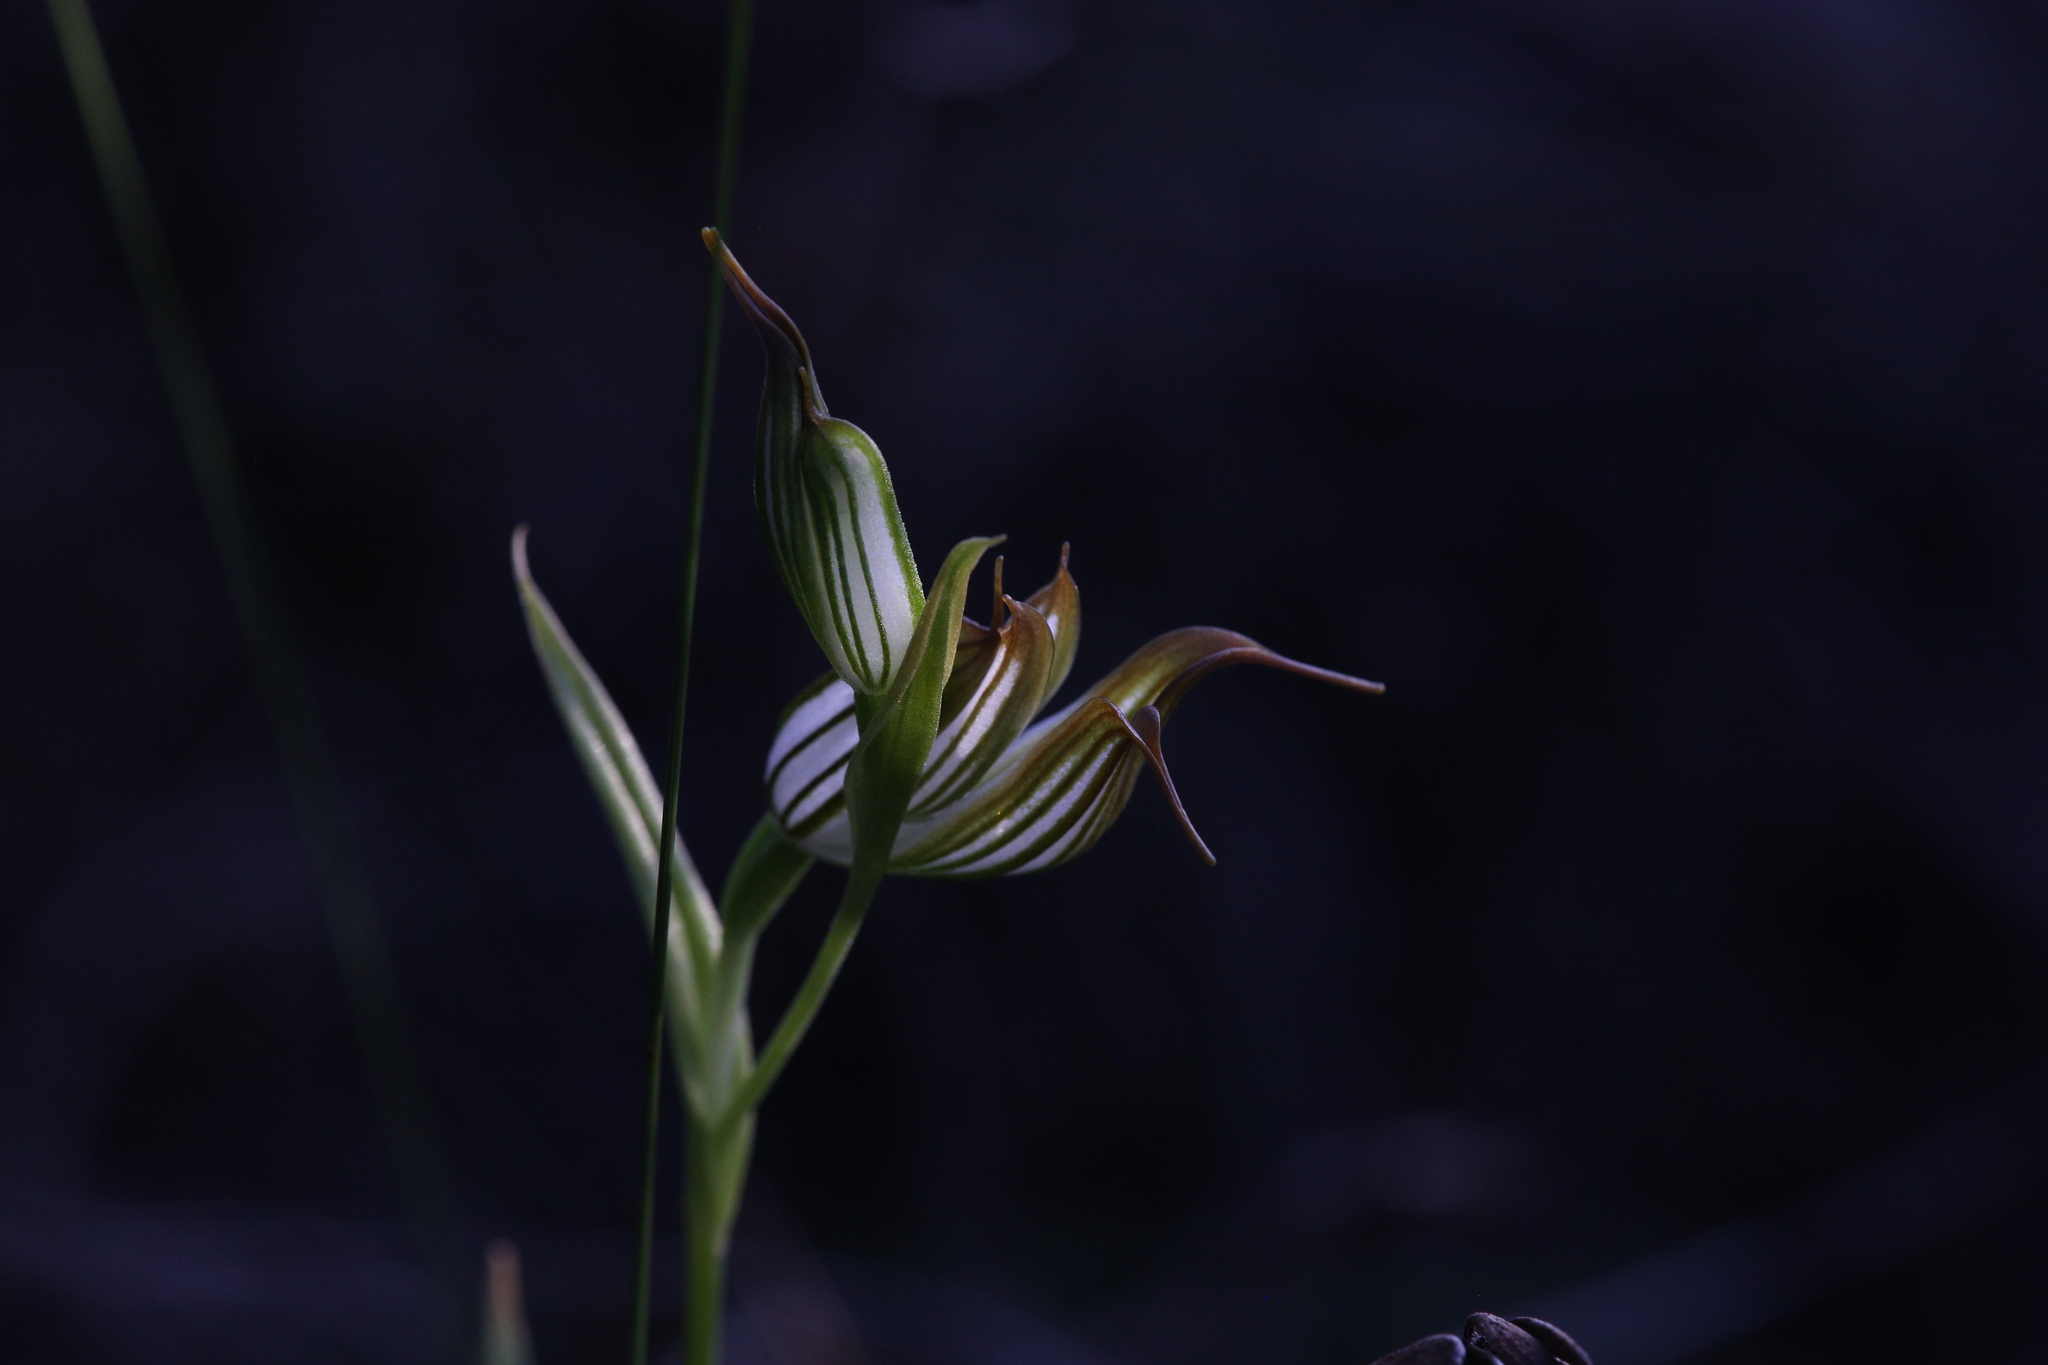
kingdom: Plantae
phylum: Tracheophyta
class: Liliopsida
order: Asparagales
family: Orchidaceae
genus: Pterostylis
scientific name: Pterostylis recurva
